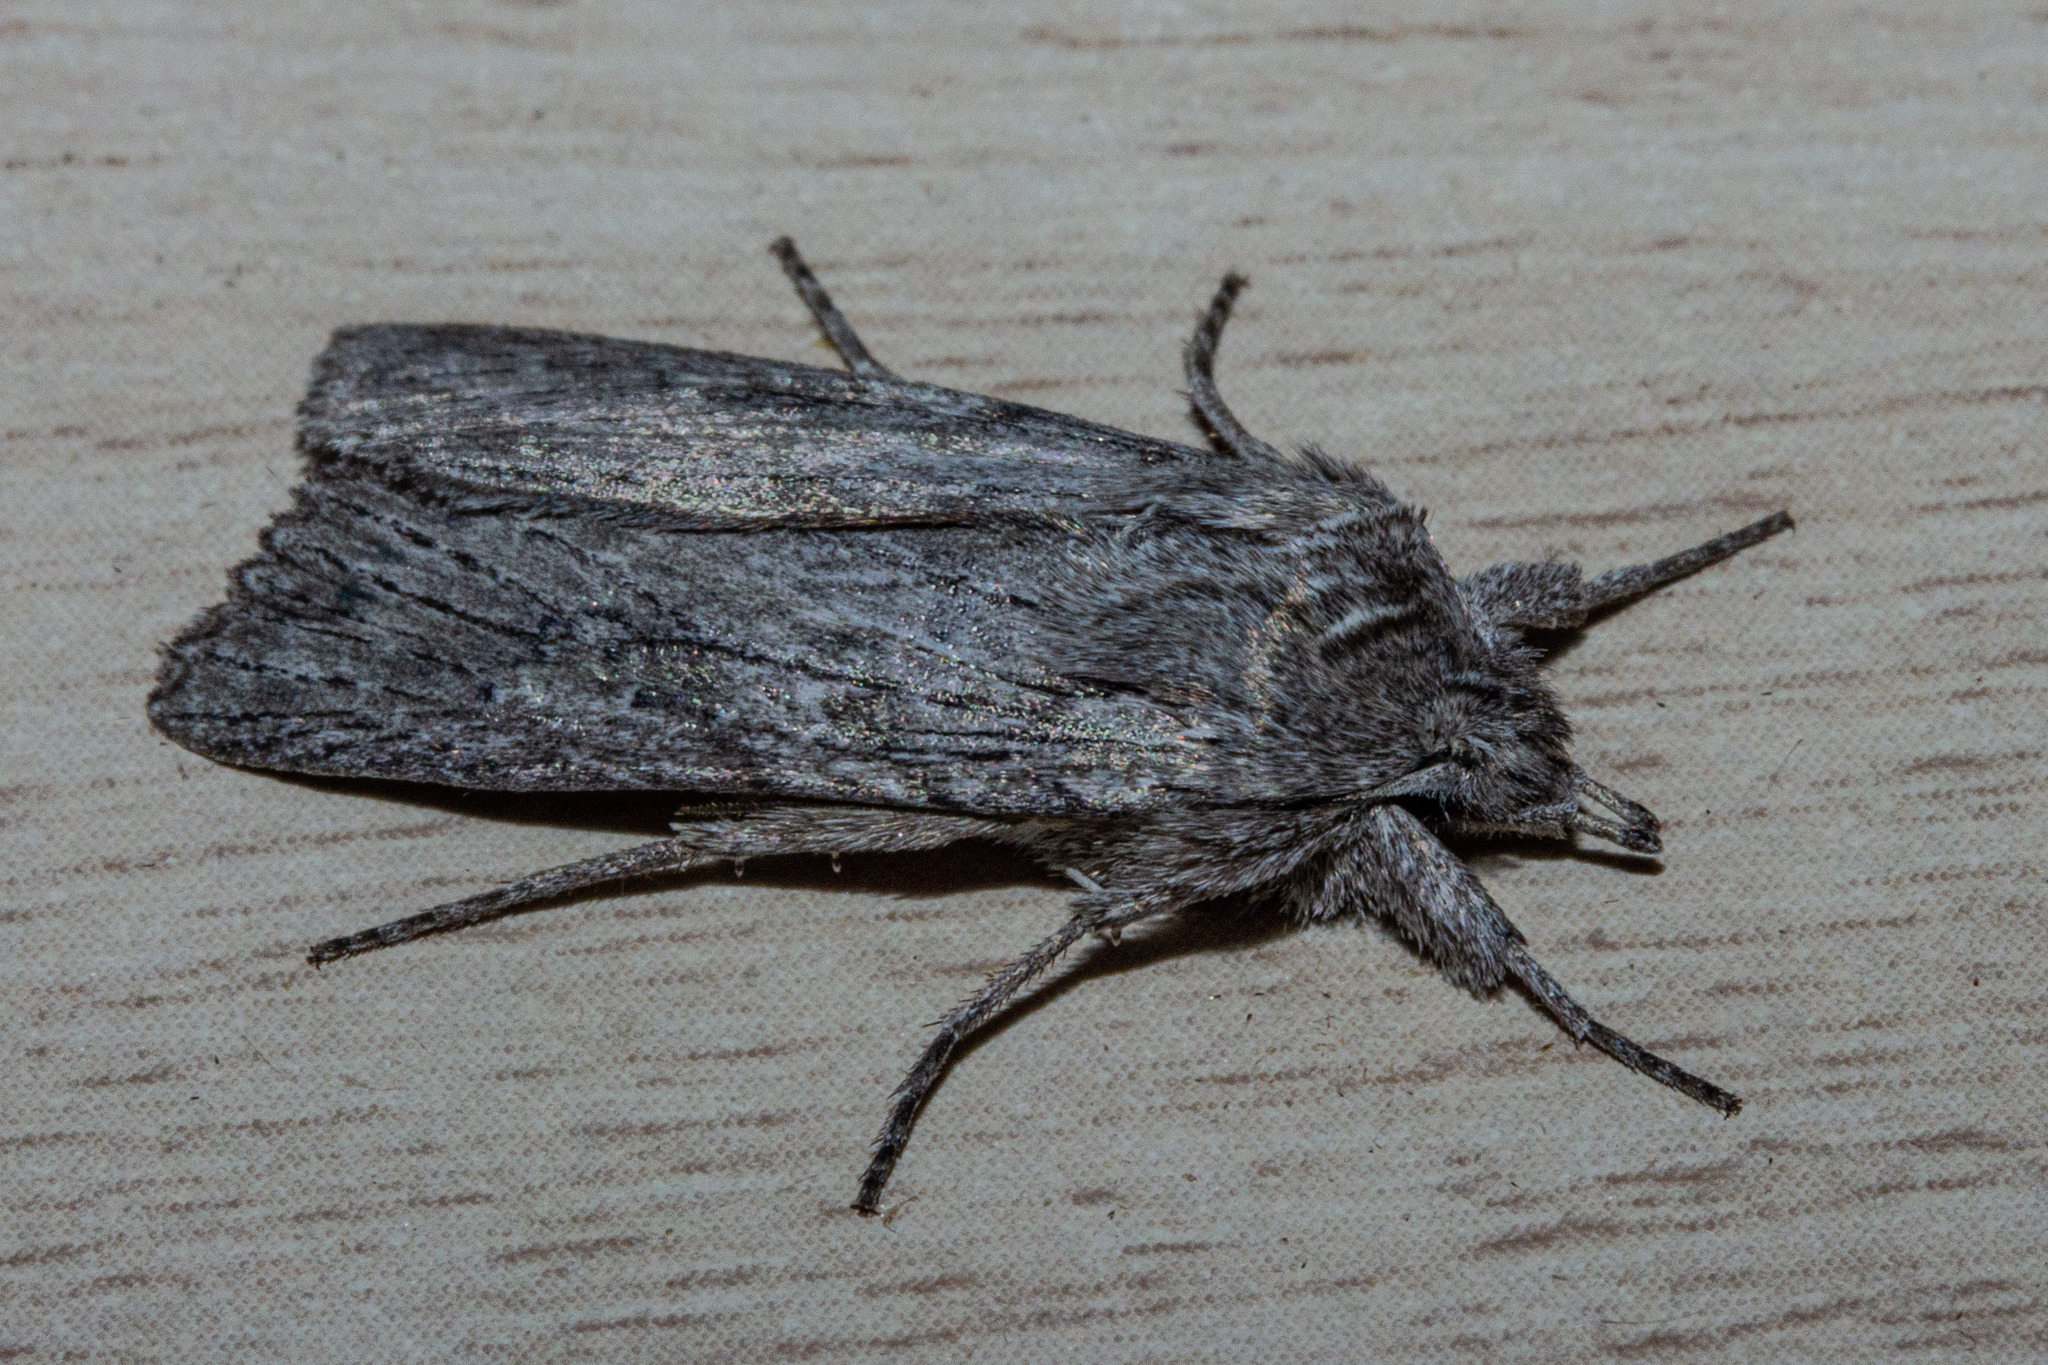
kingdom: Animalia
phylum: Arthropoda
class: Insecta
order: Lepidoptera
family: Noctuidae
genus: Physetica
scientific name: Physetica phricias
